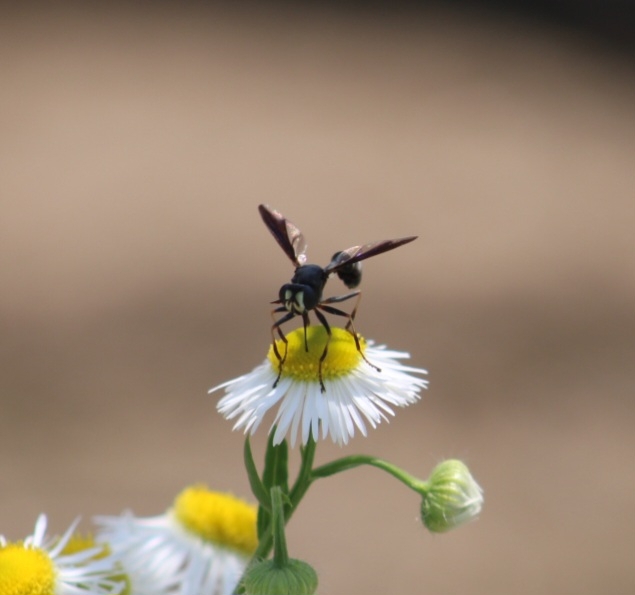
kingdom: Animalia
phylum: Arthropoda
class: Insecta
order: Diptera
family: Conopidae
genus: Physocephala
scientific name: Physocephala tibialis
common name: Common eastern physocephala
